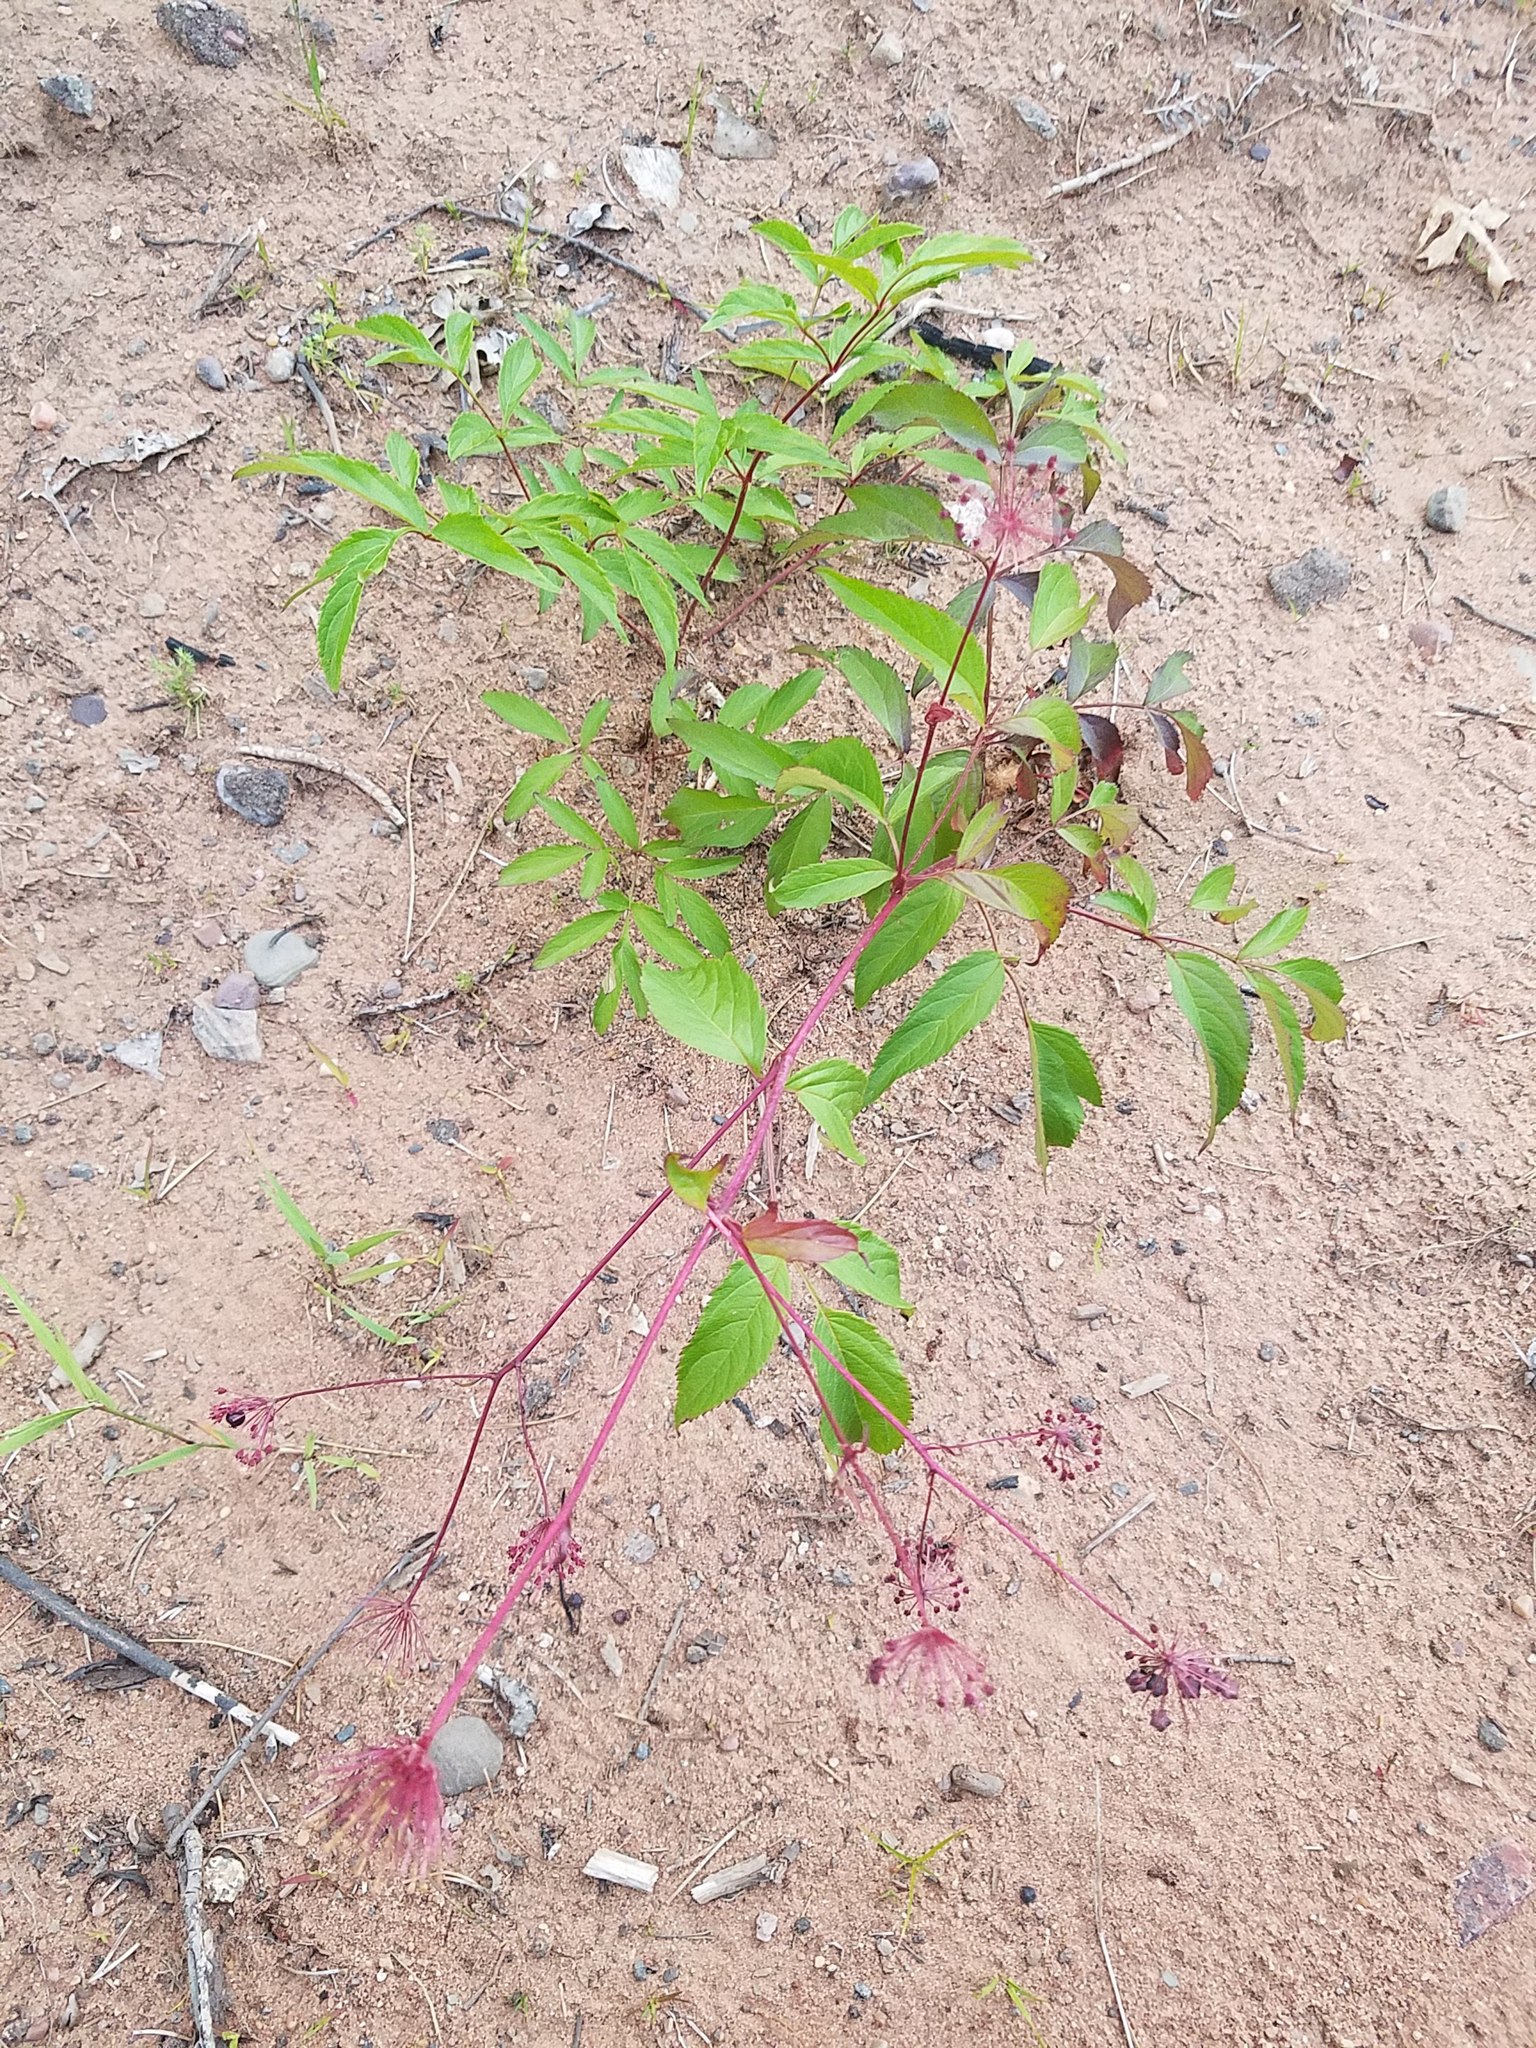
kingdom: Plantae
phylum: Tracheophyta
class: Magnoliopsida
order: Apiales
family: Araliaceae
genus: Aralia
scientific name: Aralia hispida
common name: Bristly sarsaparilla
